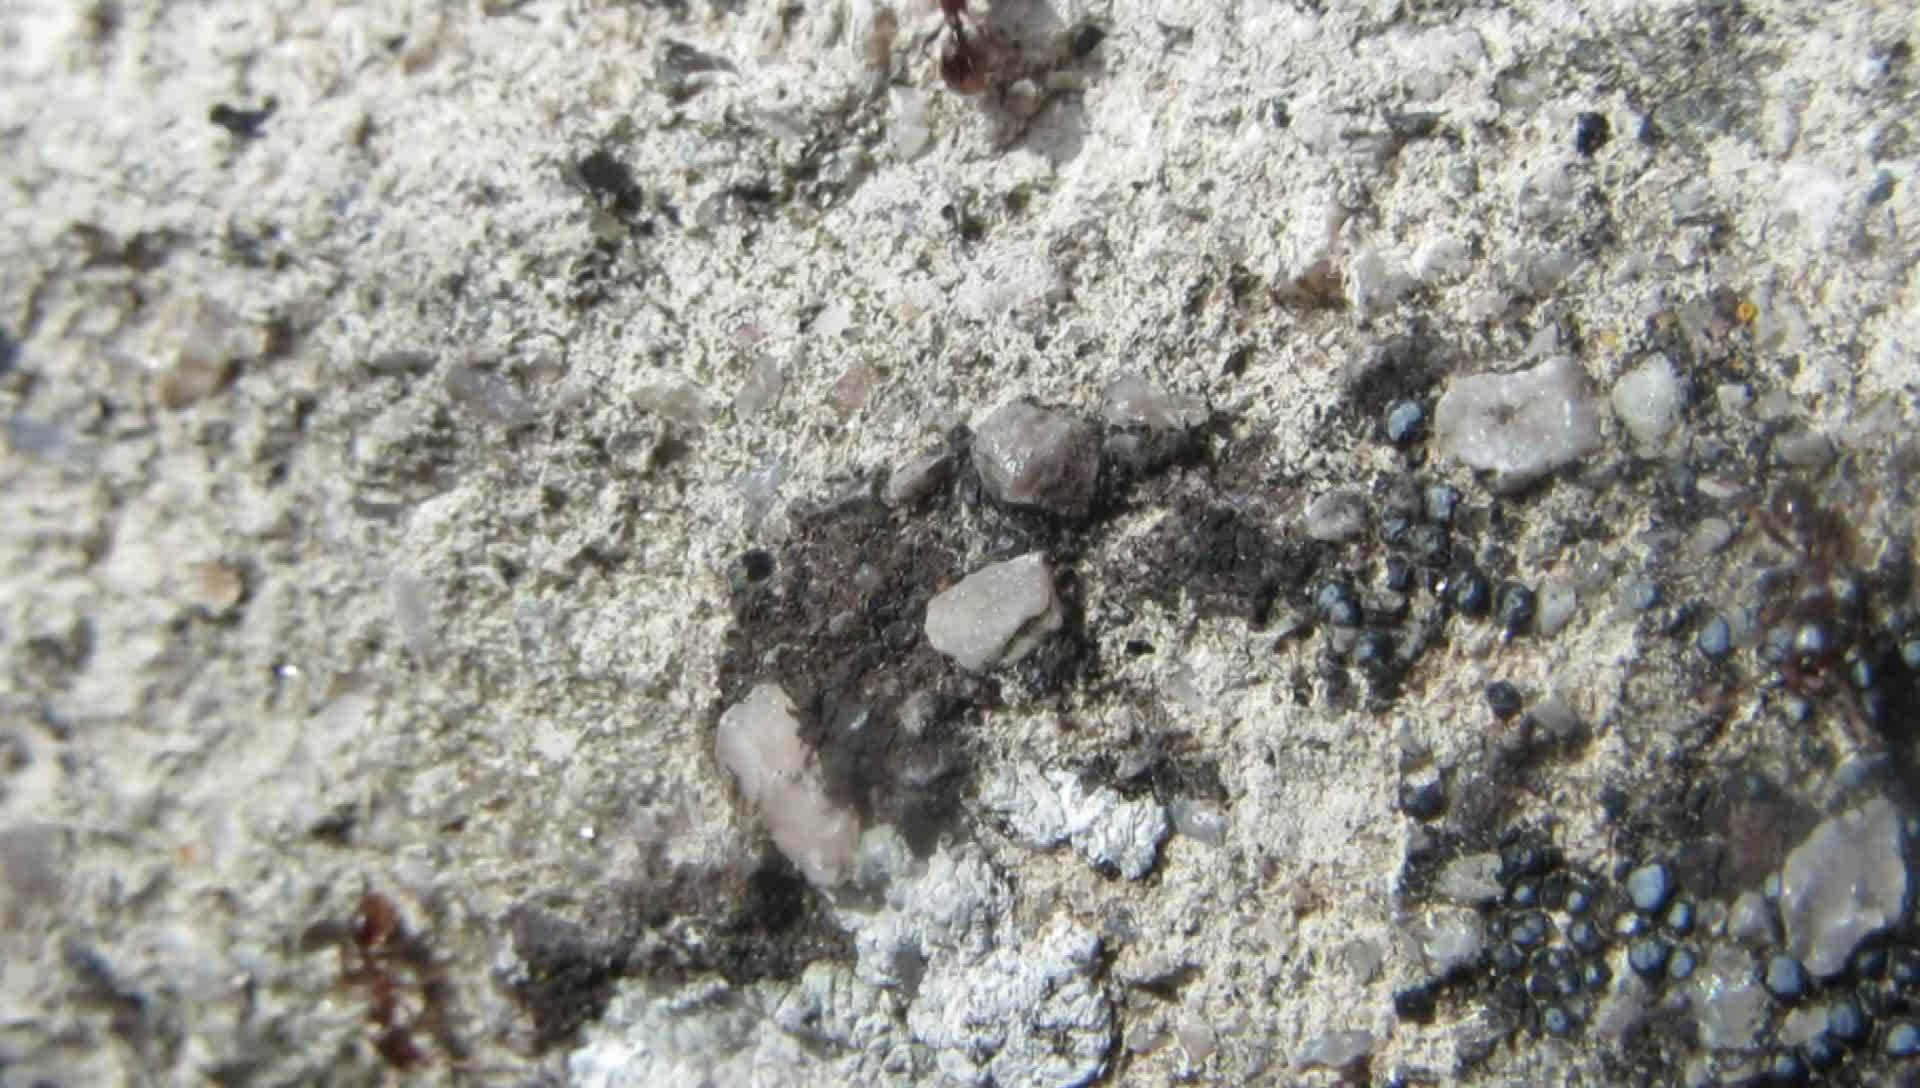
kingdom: Animalia
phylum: Arthropoda
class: Insecta
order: Hymenoptera
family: Formicidae
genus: Tetramorium
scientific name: Tetramorium
